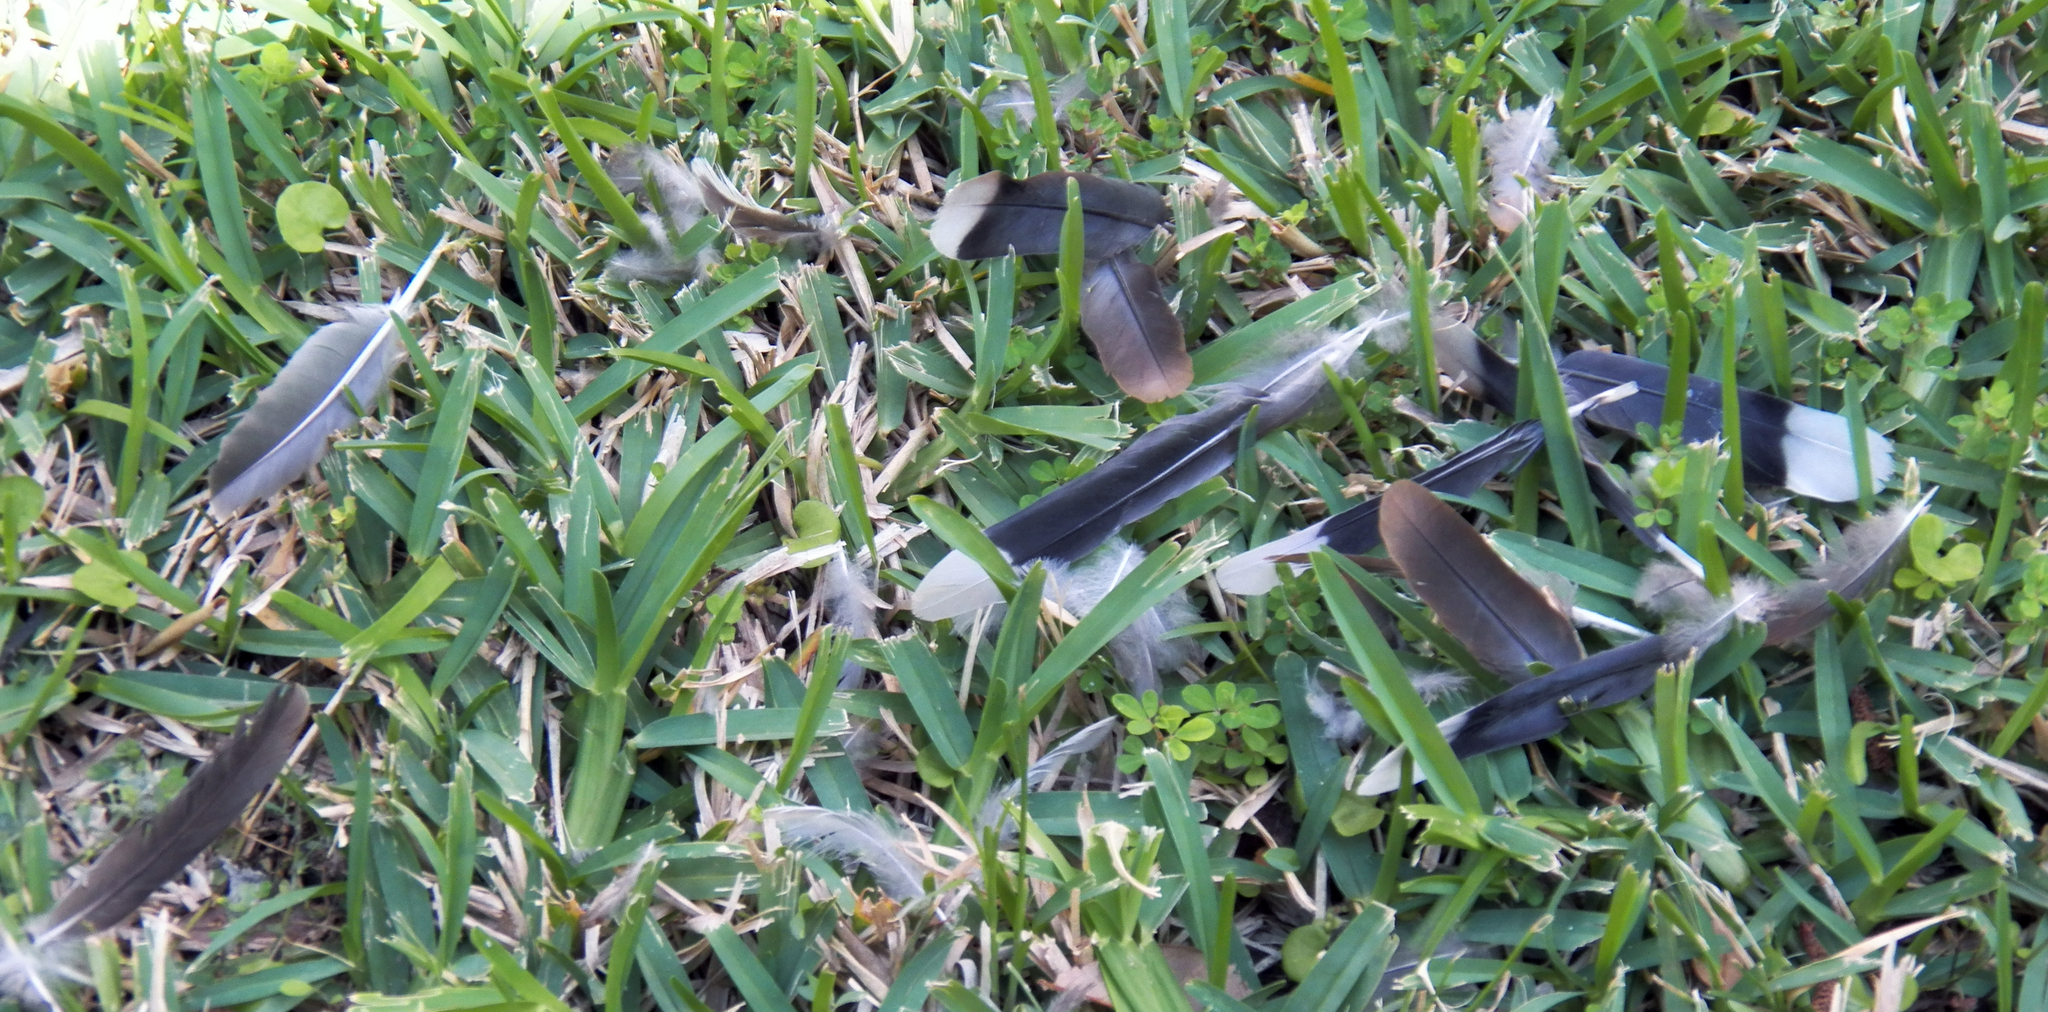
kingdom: Animalia
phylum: Chordata
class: Aves
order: Columbiformes
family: Columbidae
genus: Zenaida
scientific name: Zenaida asiatica
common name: White-winged dove
